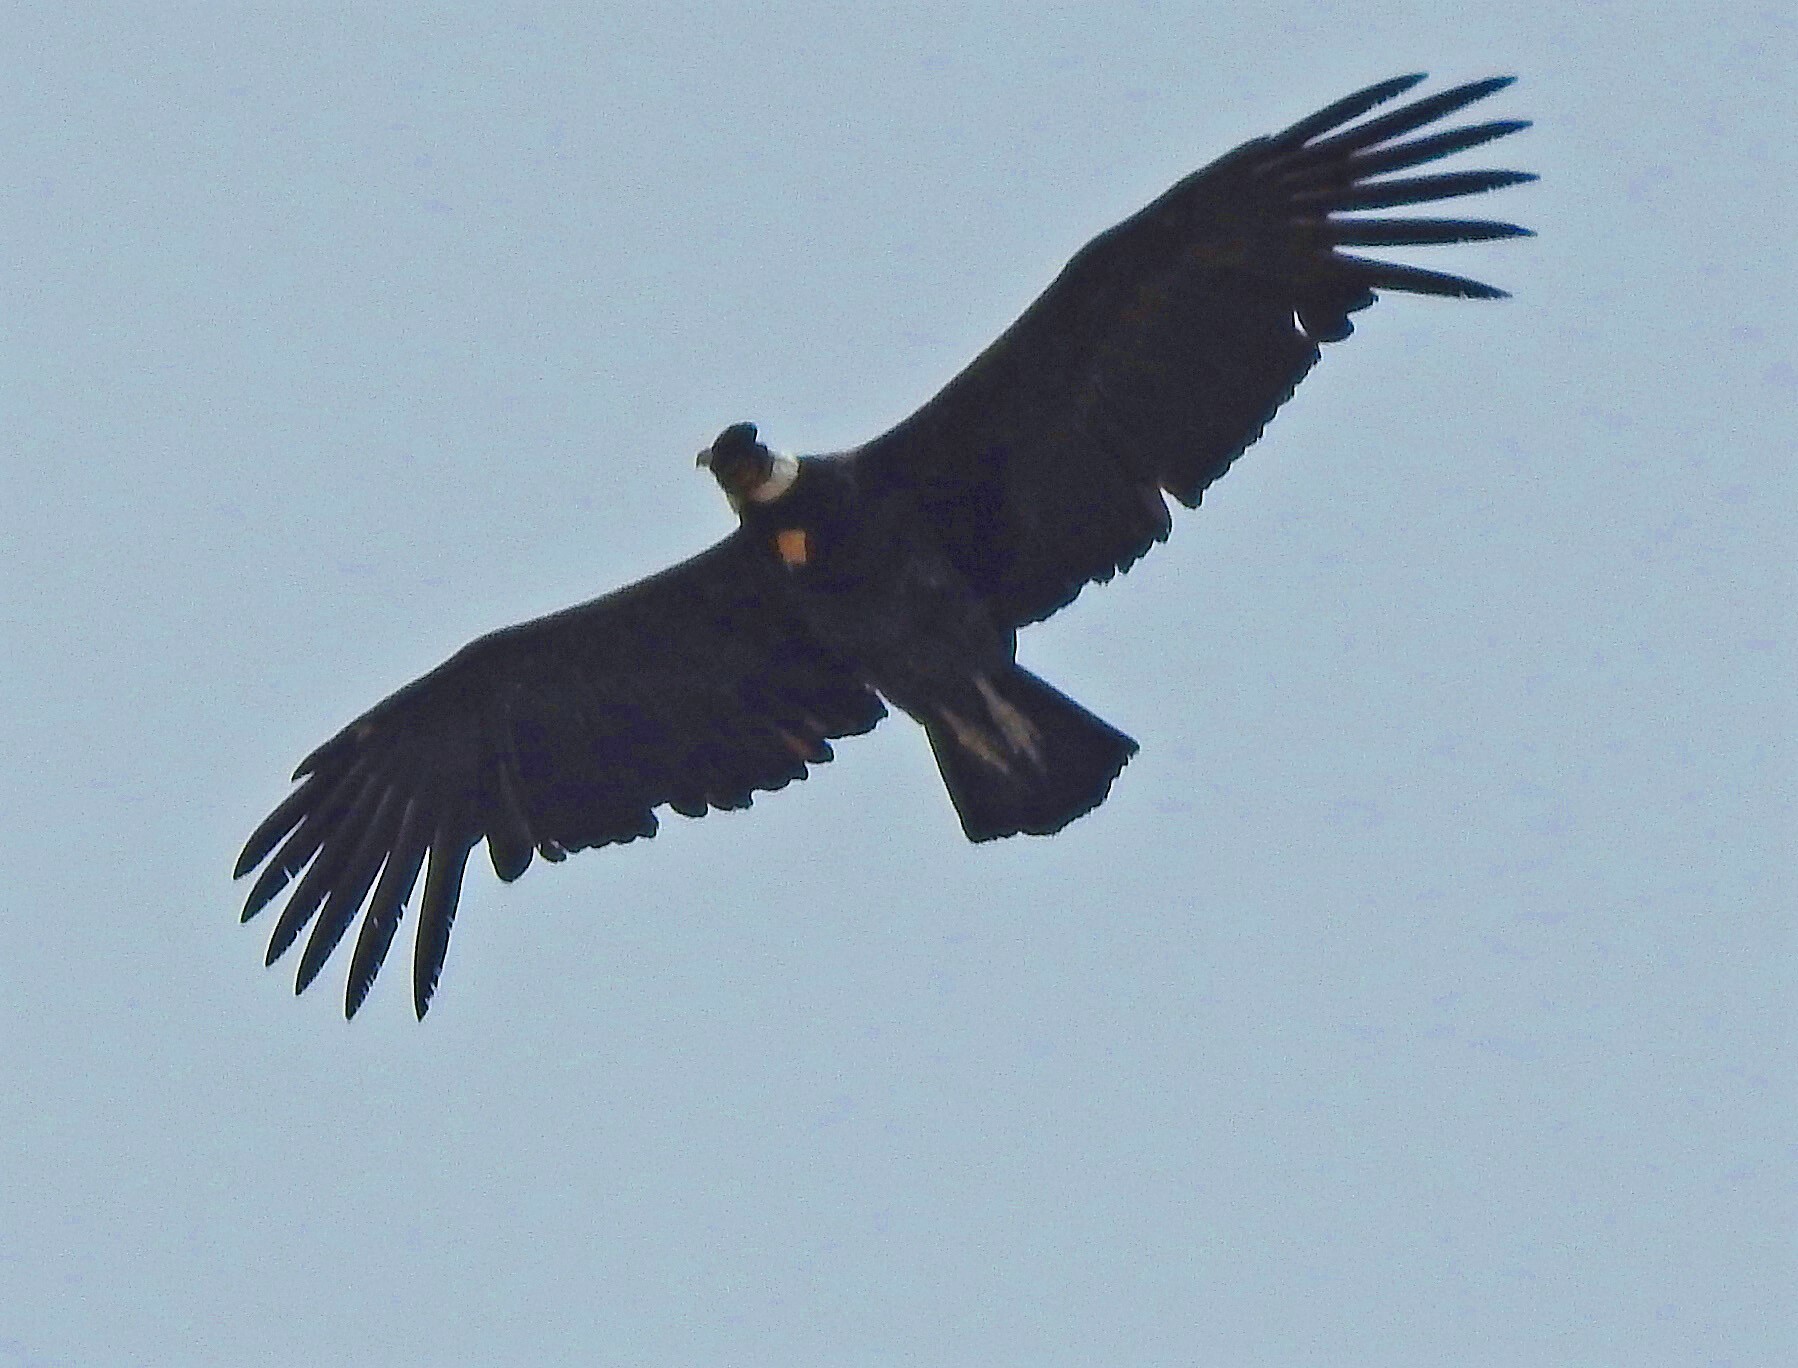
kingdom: Animalia
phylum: Chordata
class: Aves
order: Accipitriformes
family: Cathartidae
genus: Vultur
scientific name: Vultur gryphus
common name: Andean condor
